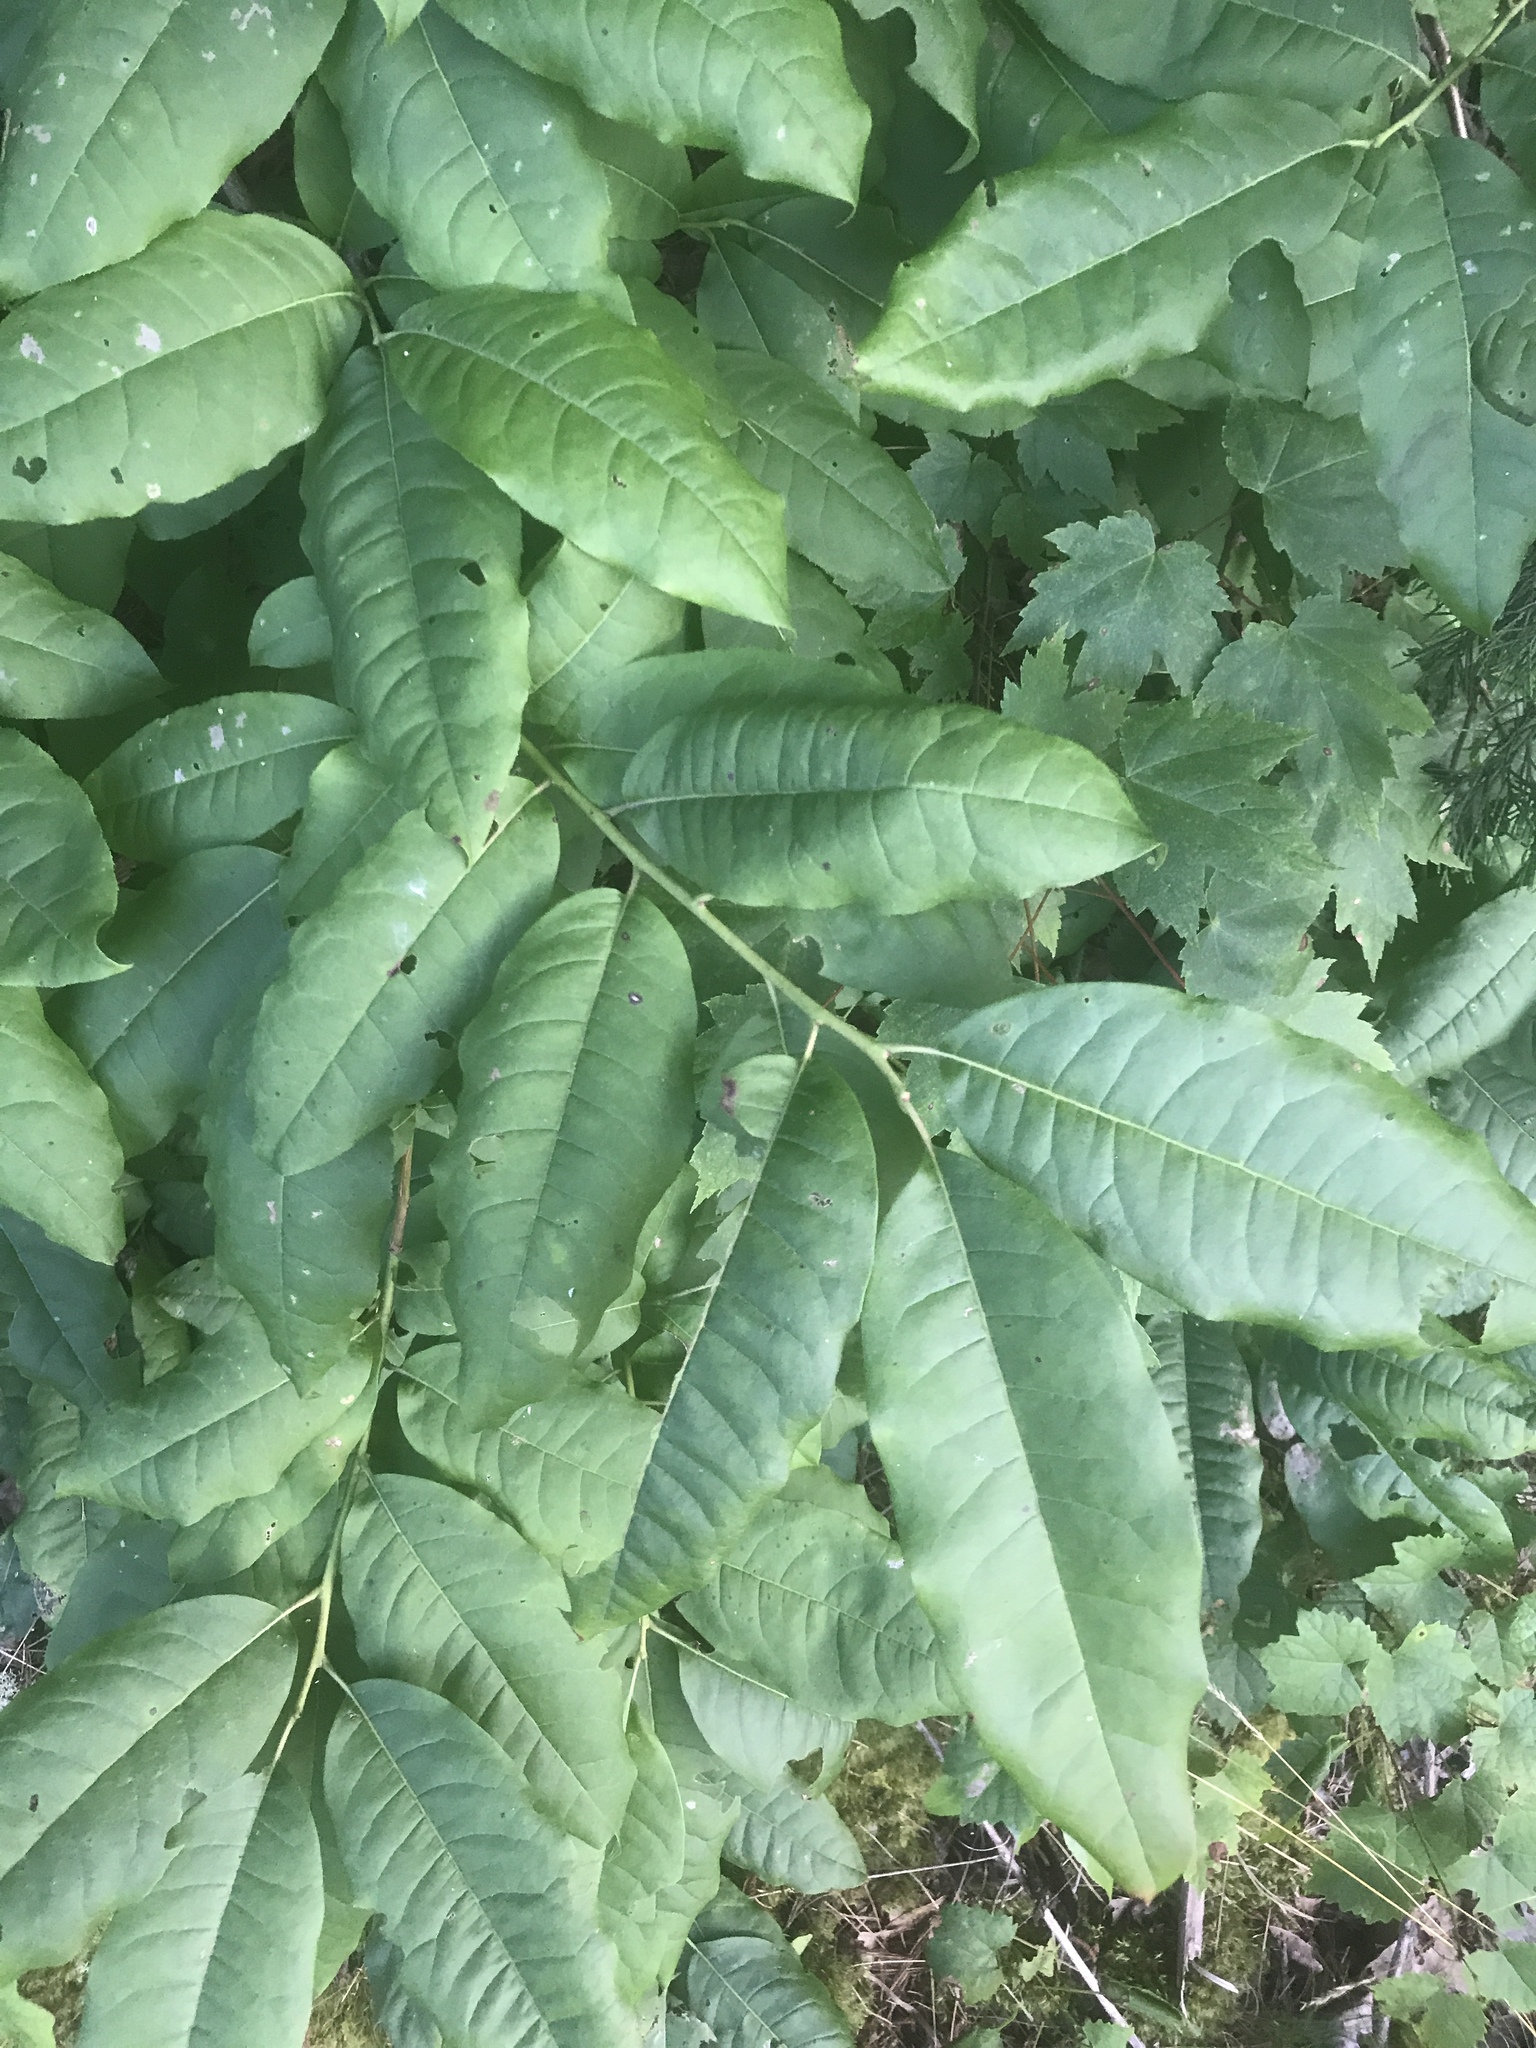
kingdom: Plantae
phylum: Tracheophyta
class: Magnoliopsida
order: Ericales
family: Ericaceae
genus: Oxydendrum
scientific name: Oxydendrum arboreum
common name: Sourwood
